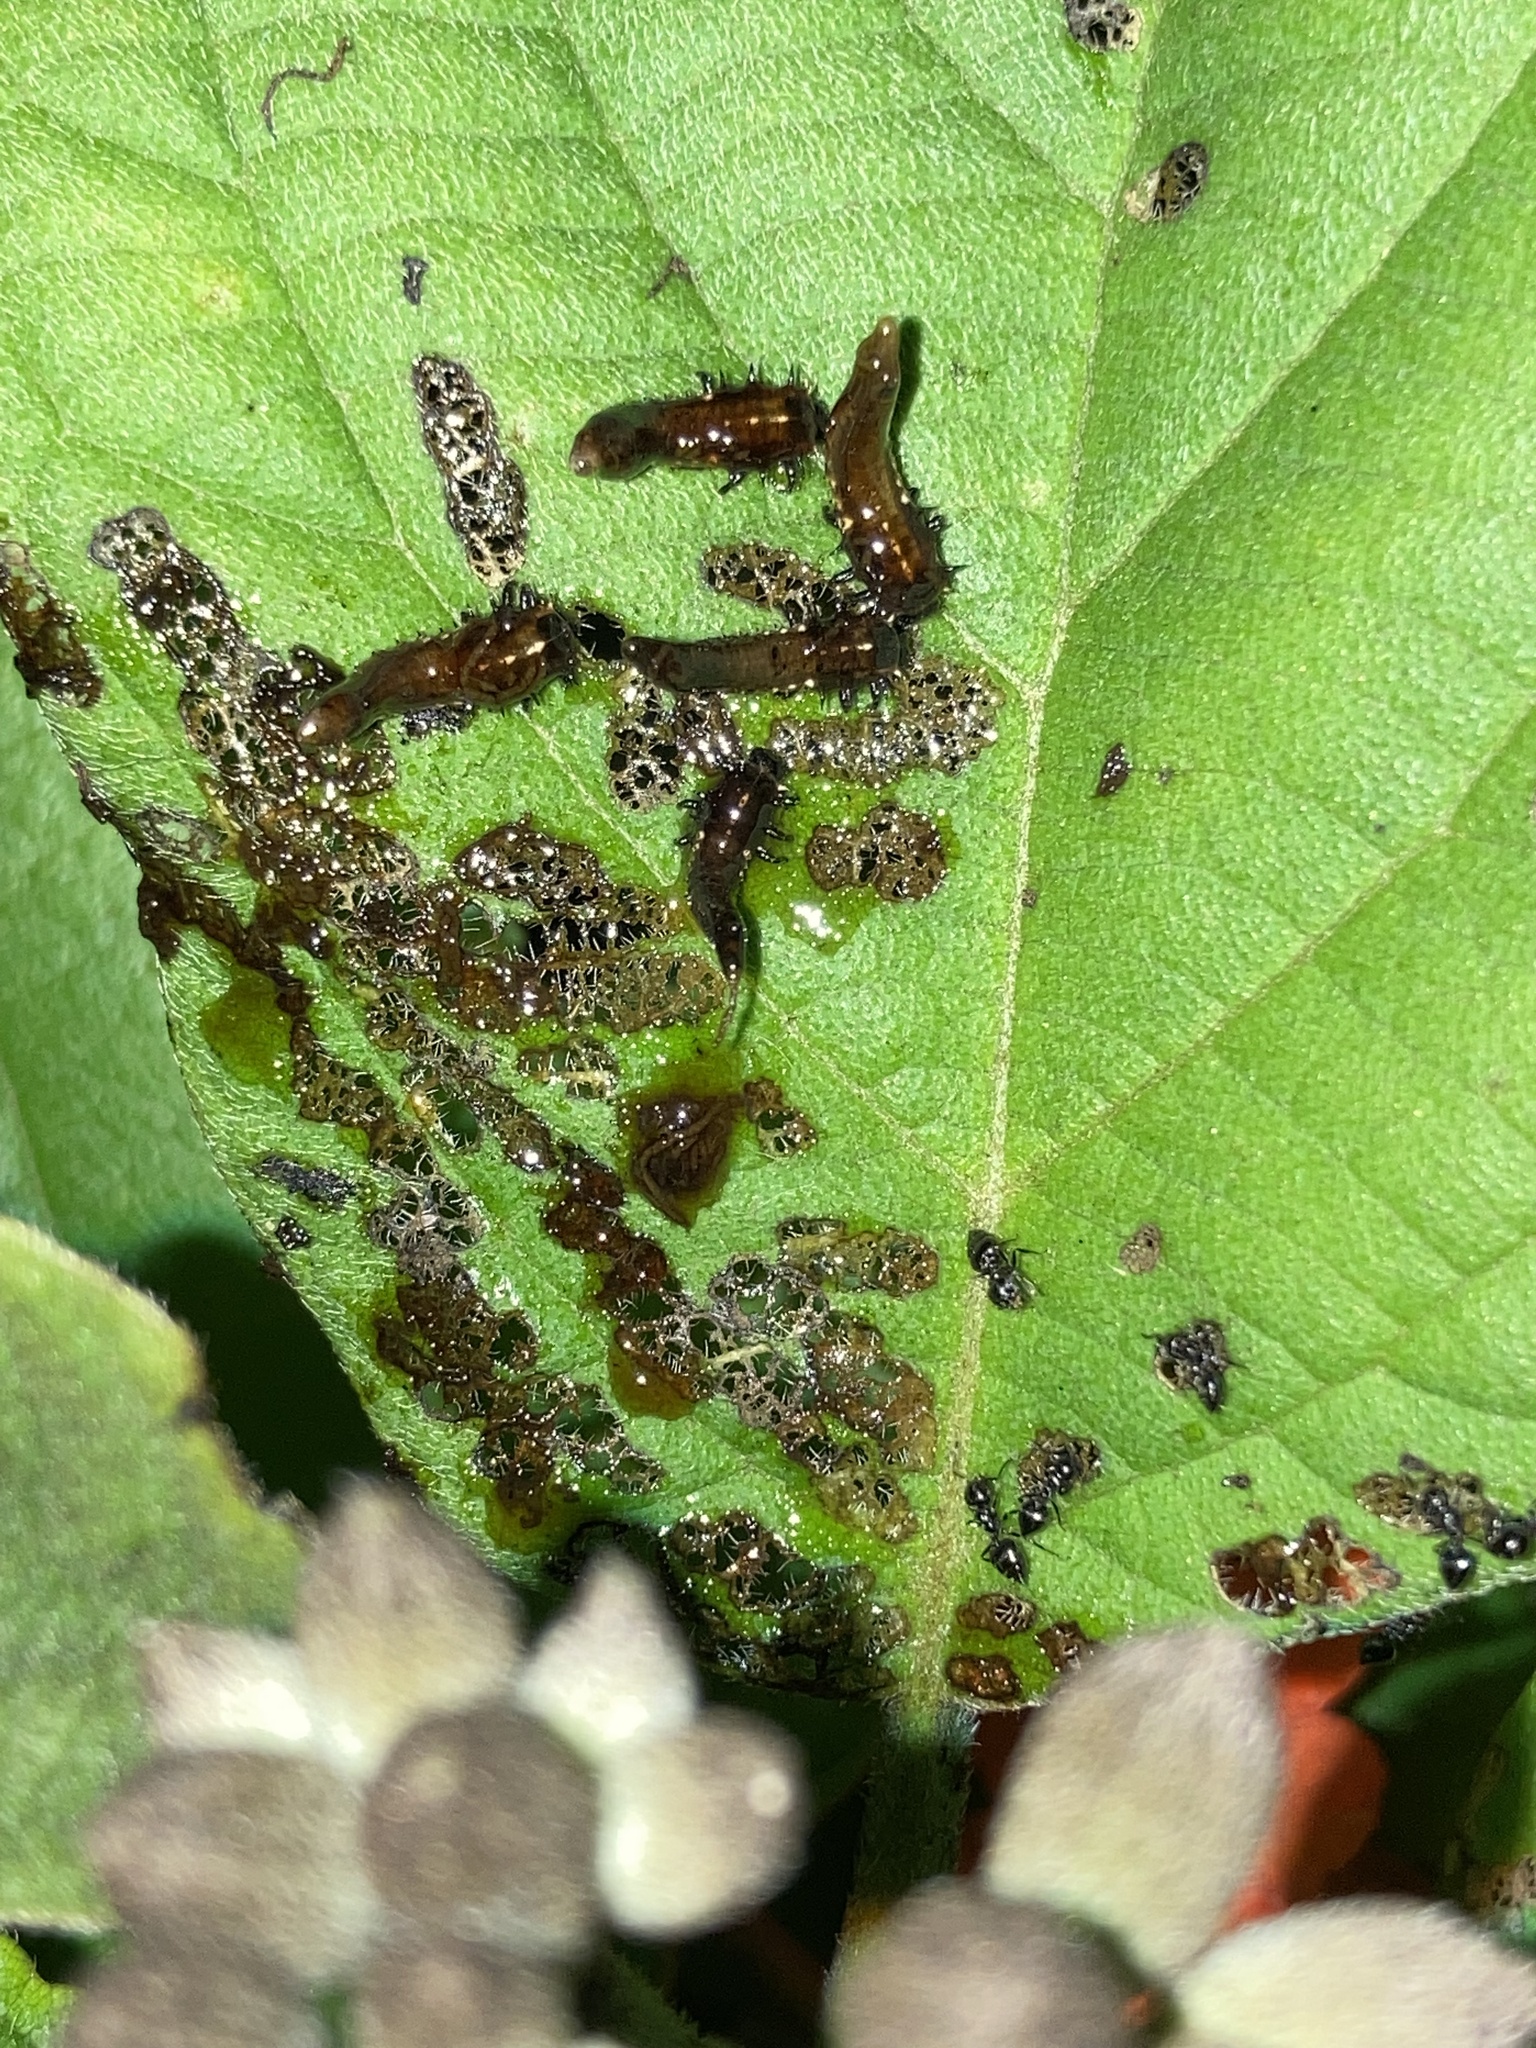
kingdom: Animalia
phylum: Arthropoda
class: Insecta
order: Coleoptera
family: Chrysomelidae
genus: Eurypepla
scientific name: Eurypepla calochroma
